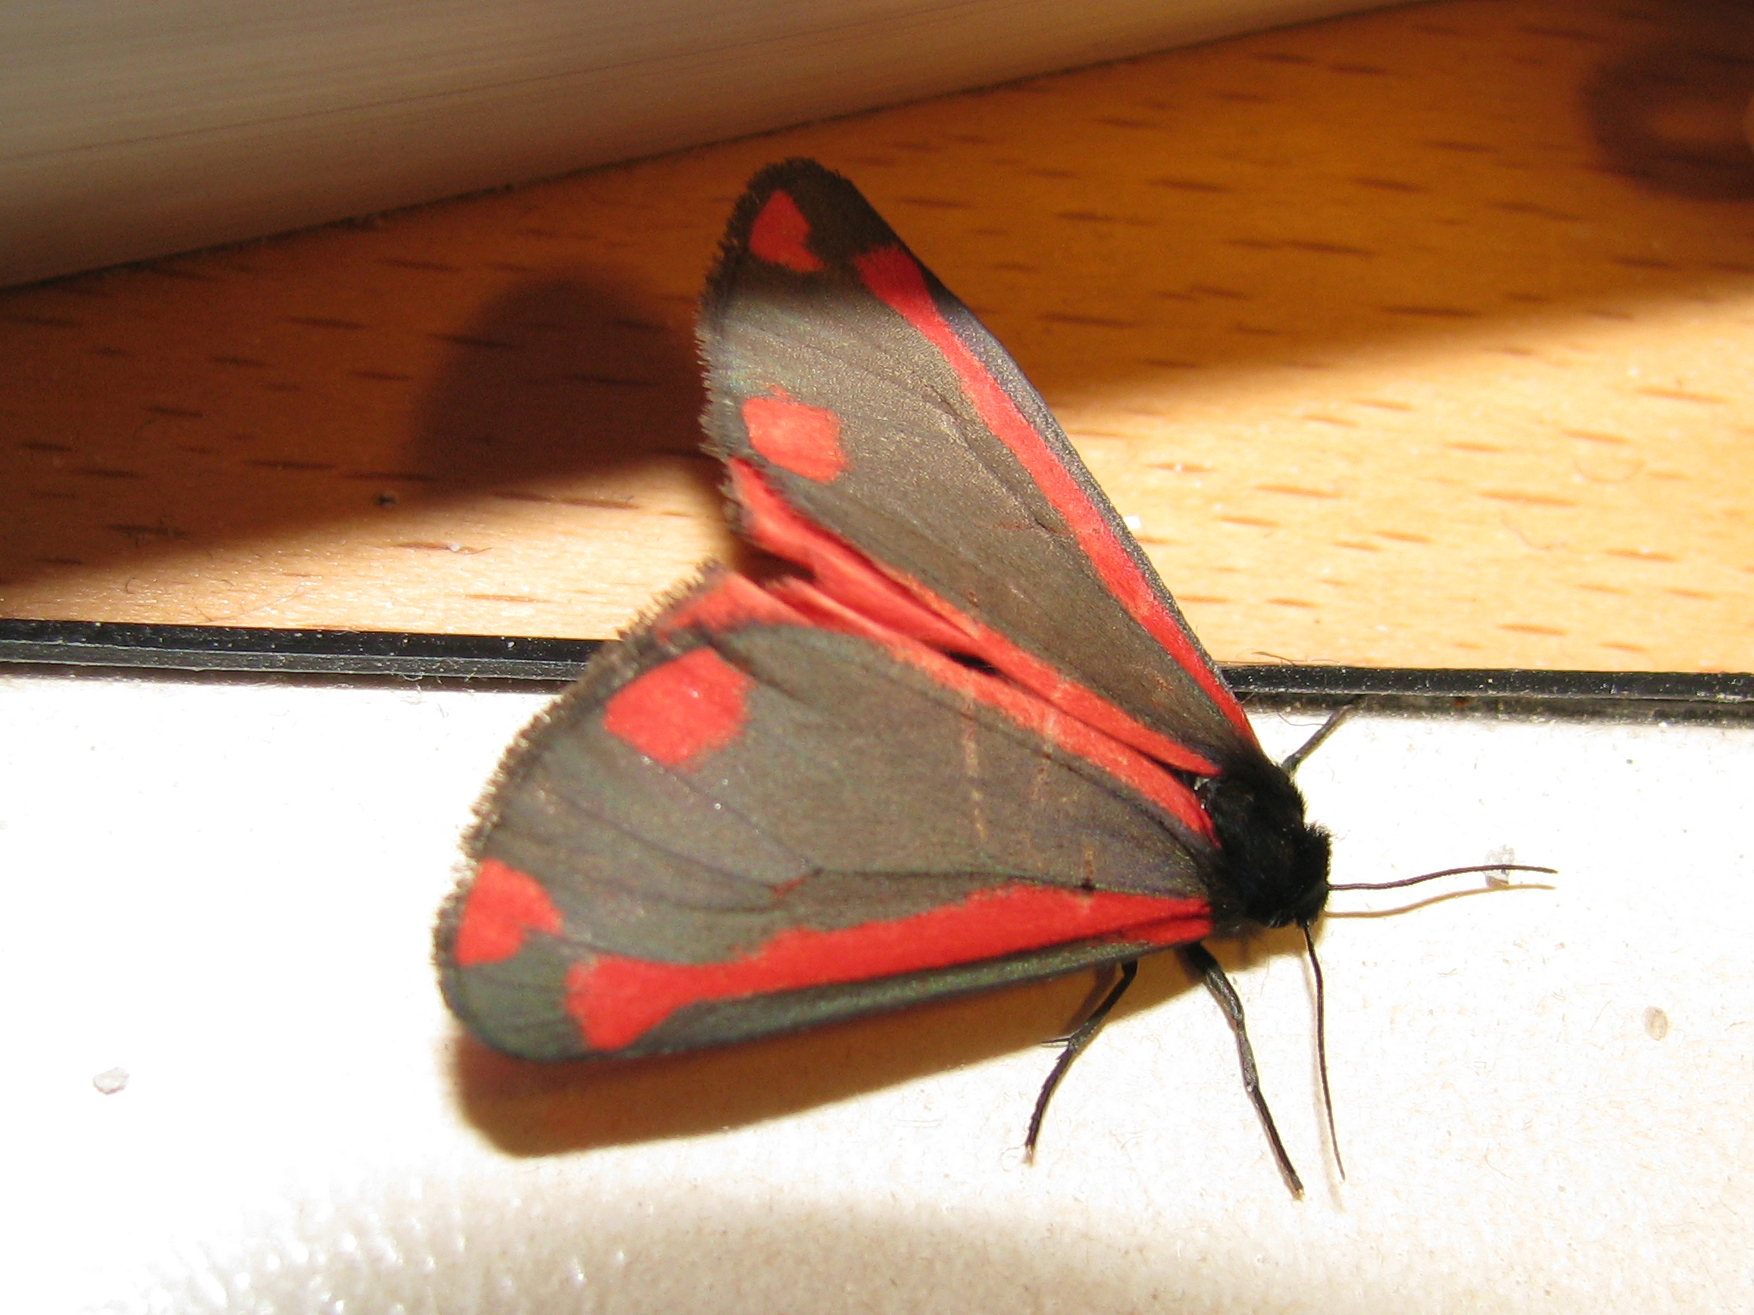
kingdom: Animalia
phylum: Arthropoda
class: Insecta
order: Lepidoptera
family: Erebidae
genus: Tyria
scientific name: Tyria jacobaeae
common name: Cinnabar
